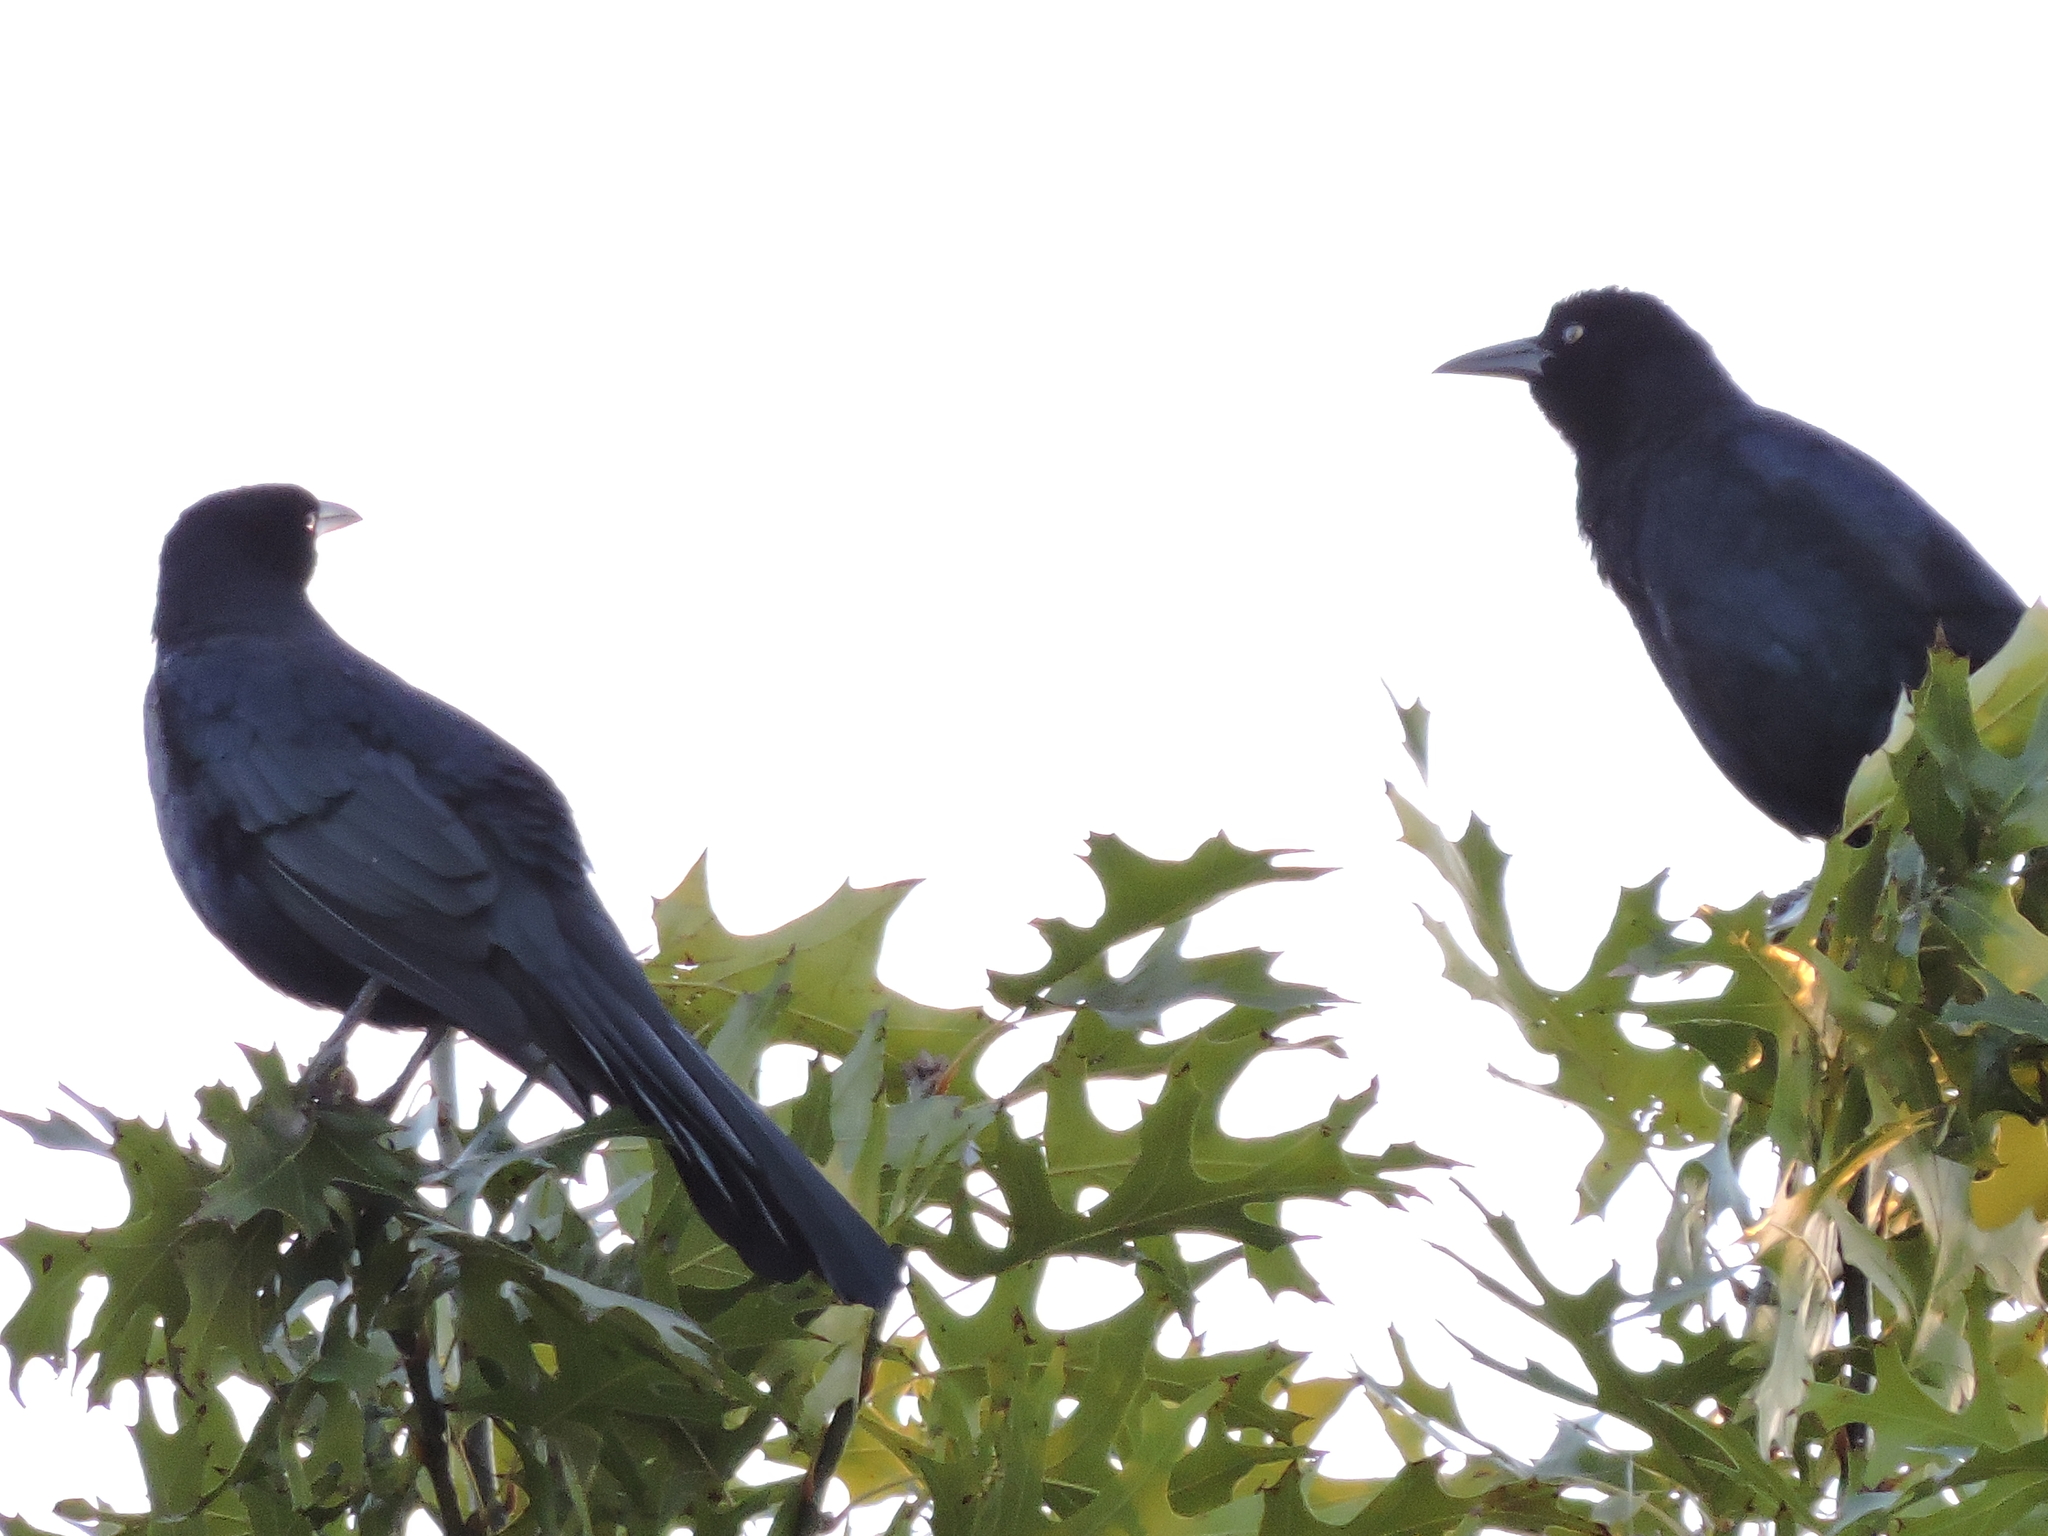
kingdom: Animalia
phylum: Chordata
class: Aves
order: Passeriformes
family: Icteridae
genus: Quiscalus
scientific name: Quiscalus mexicanus
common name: Great-tailed grackle
